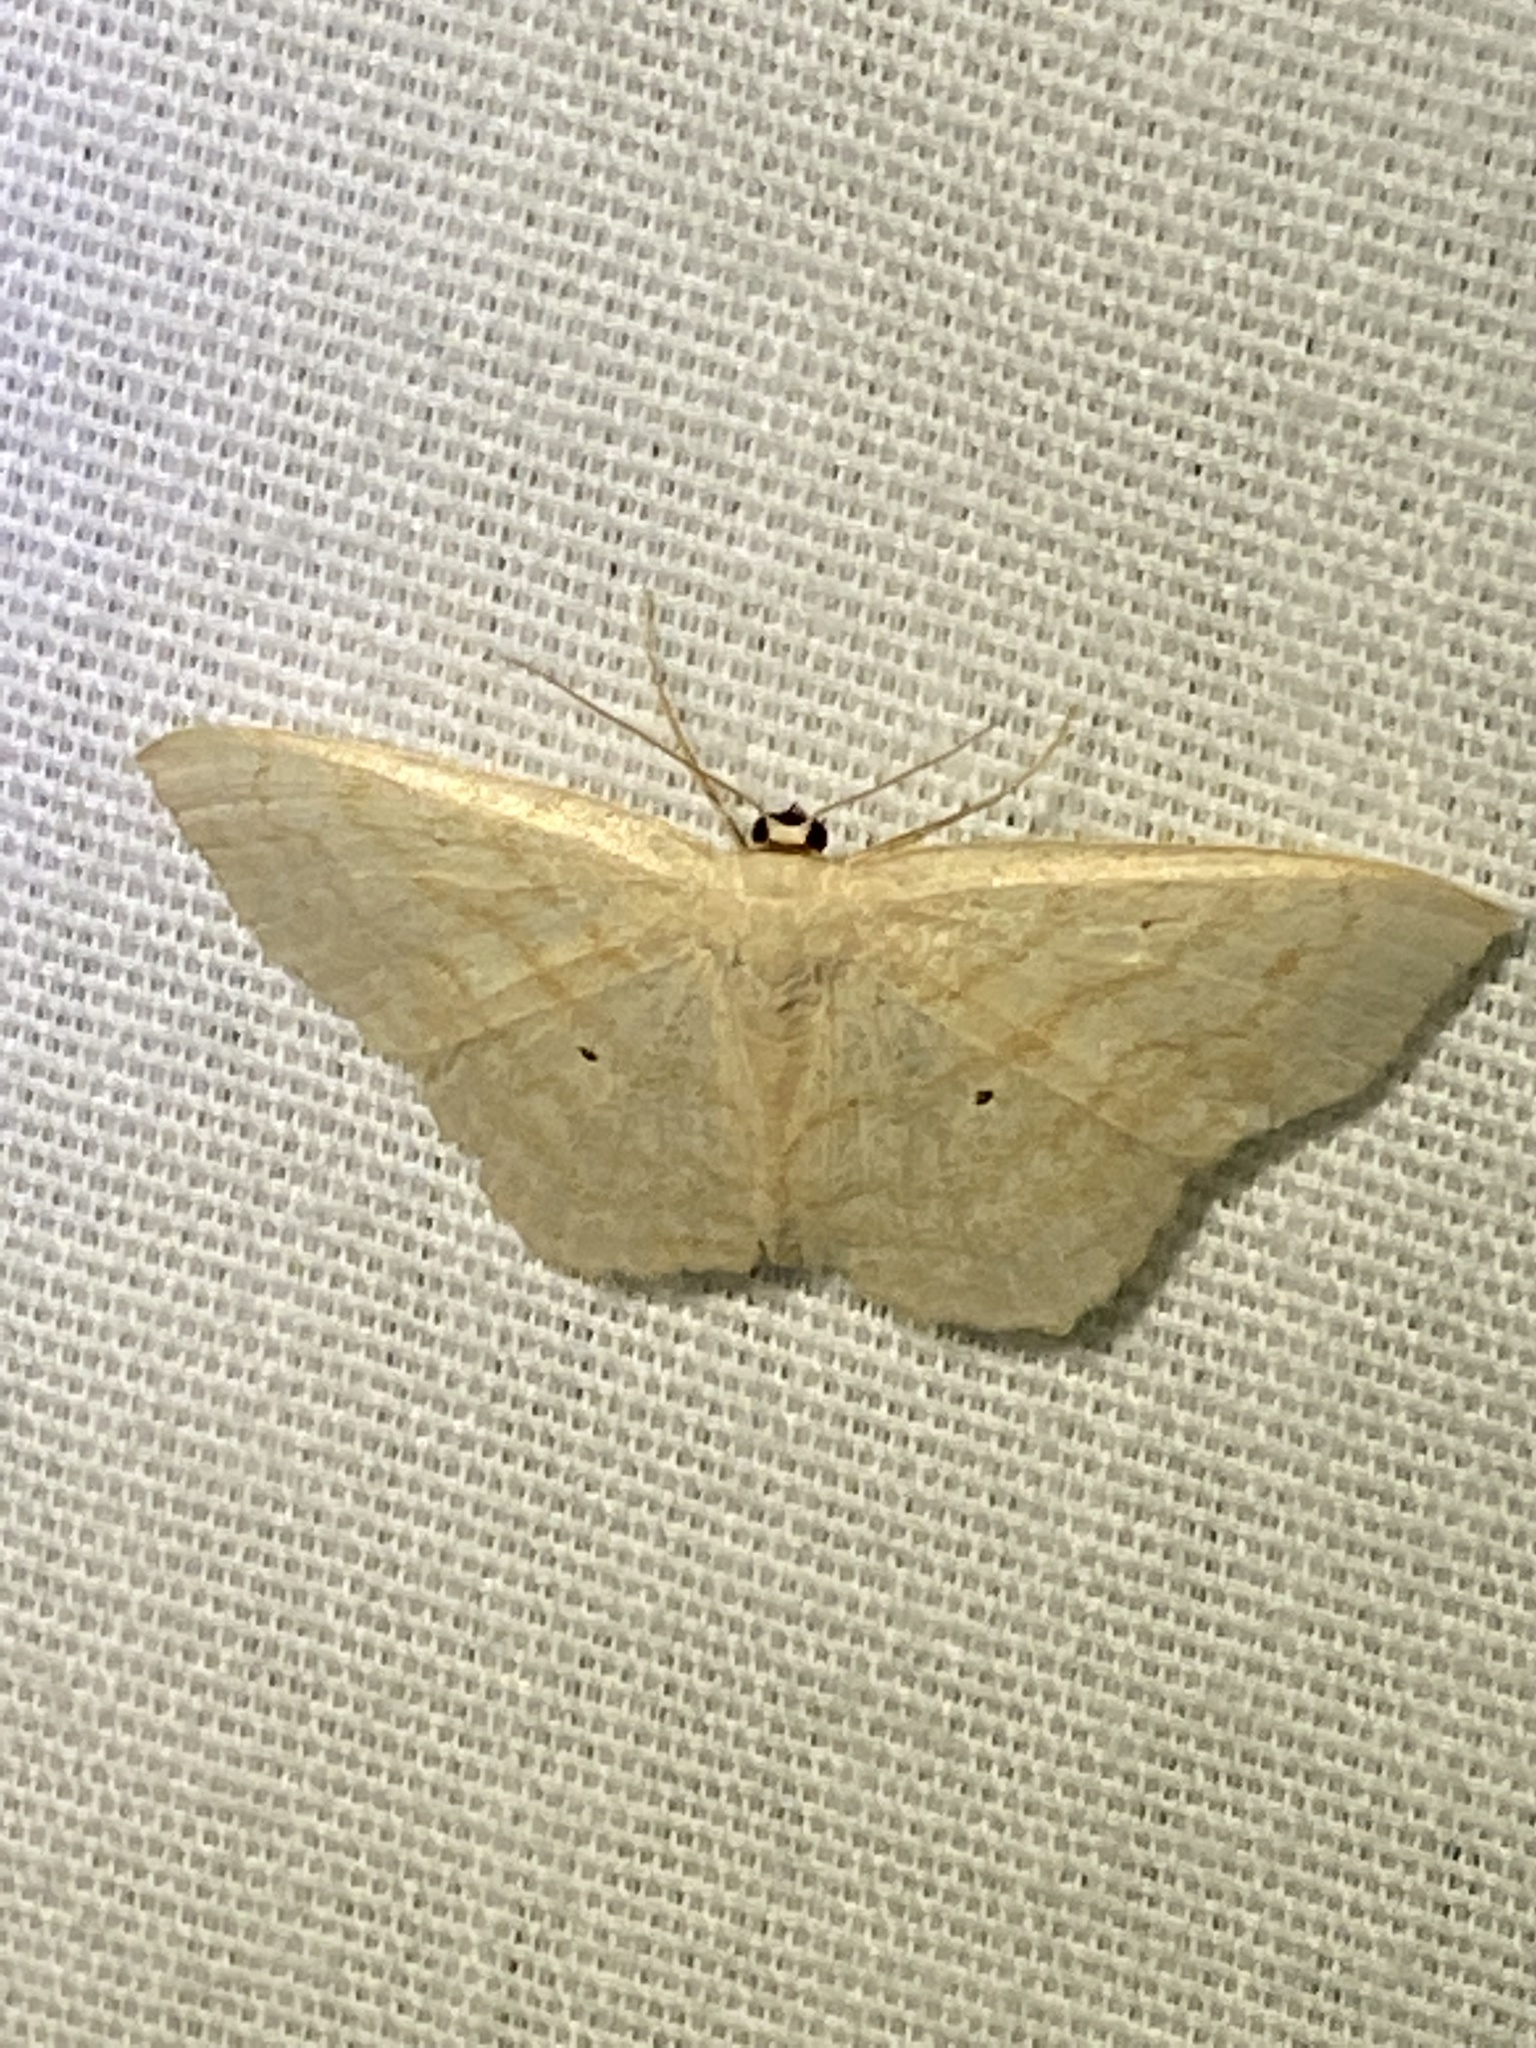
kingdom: Animalia
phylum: Arthropoda
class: Insecta
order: Lepidoptera
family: Geometridae
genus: Scopula
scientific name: Scopula limboundata
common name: Large lace border
